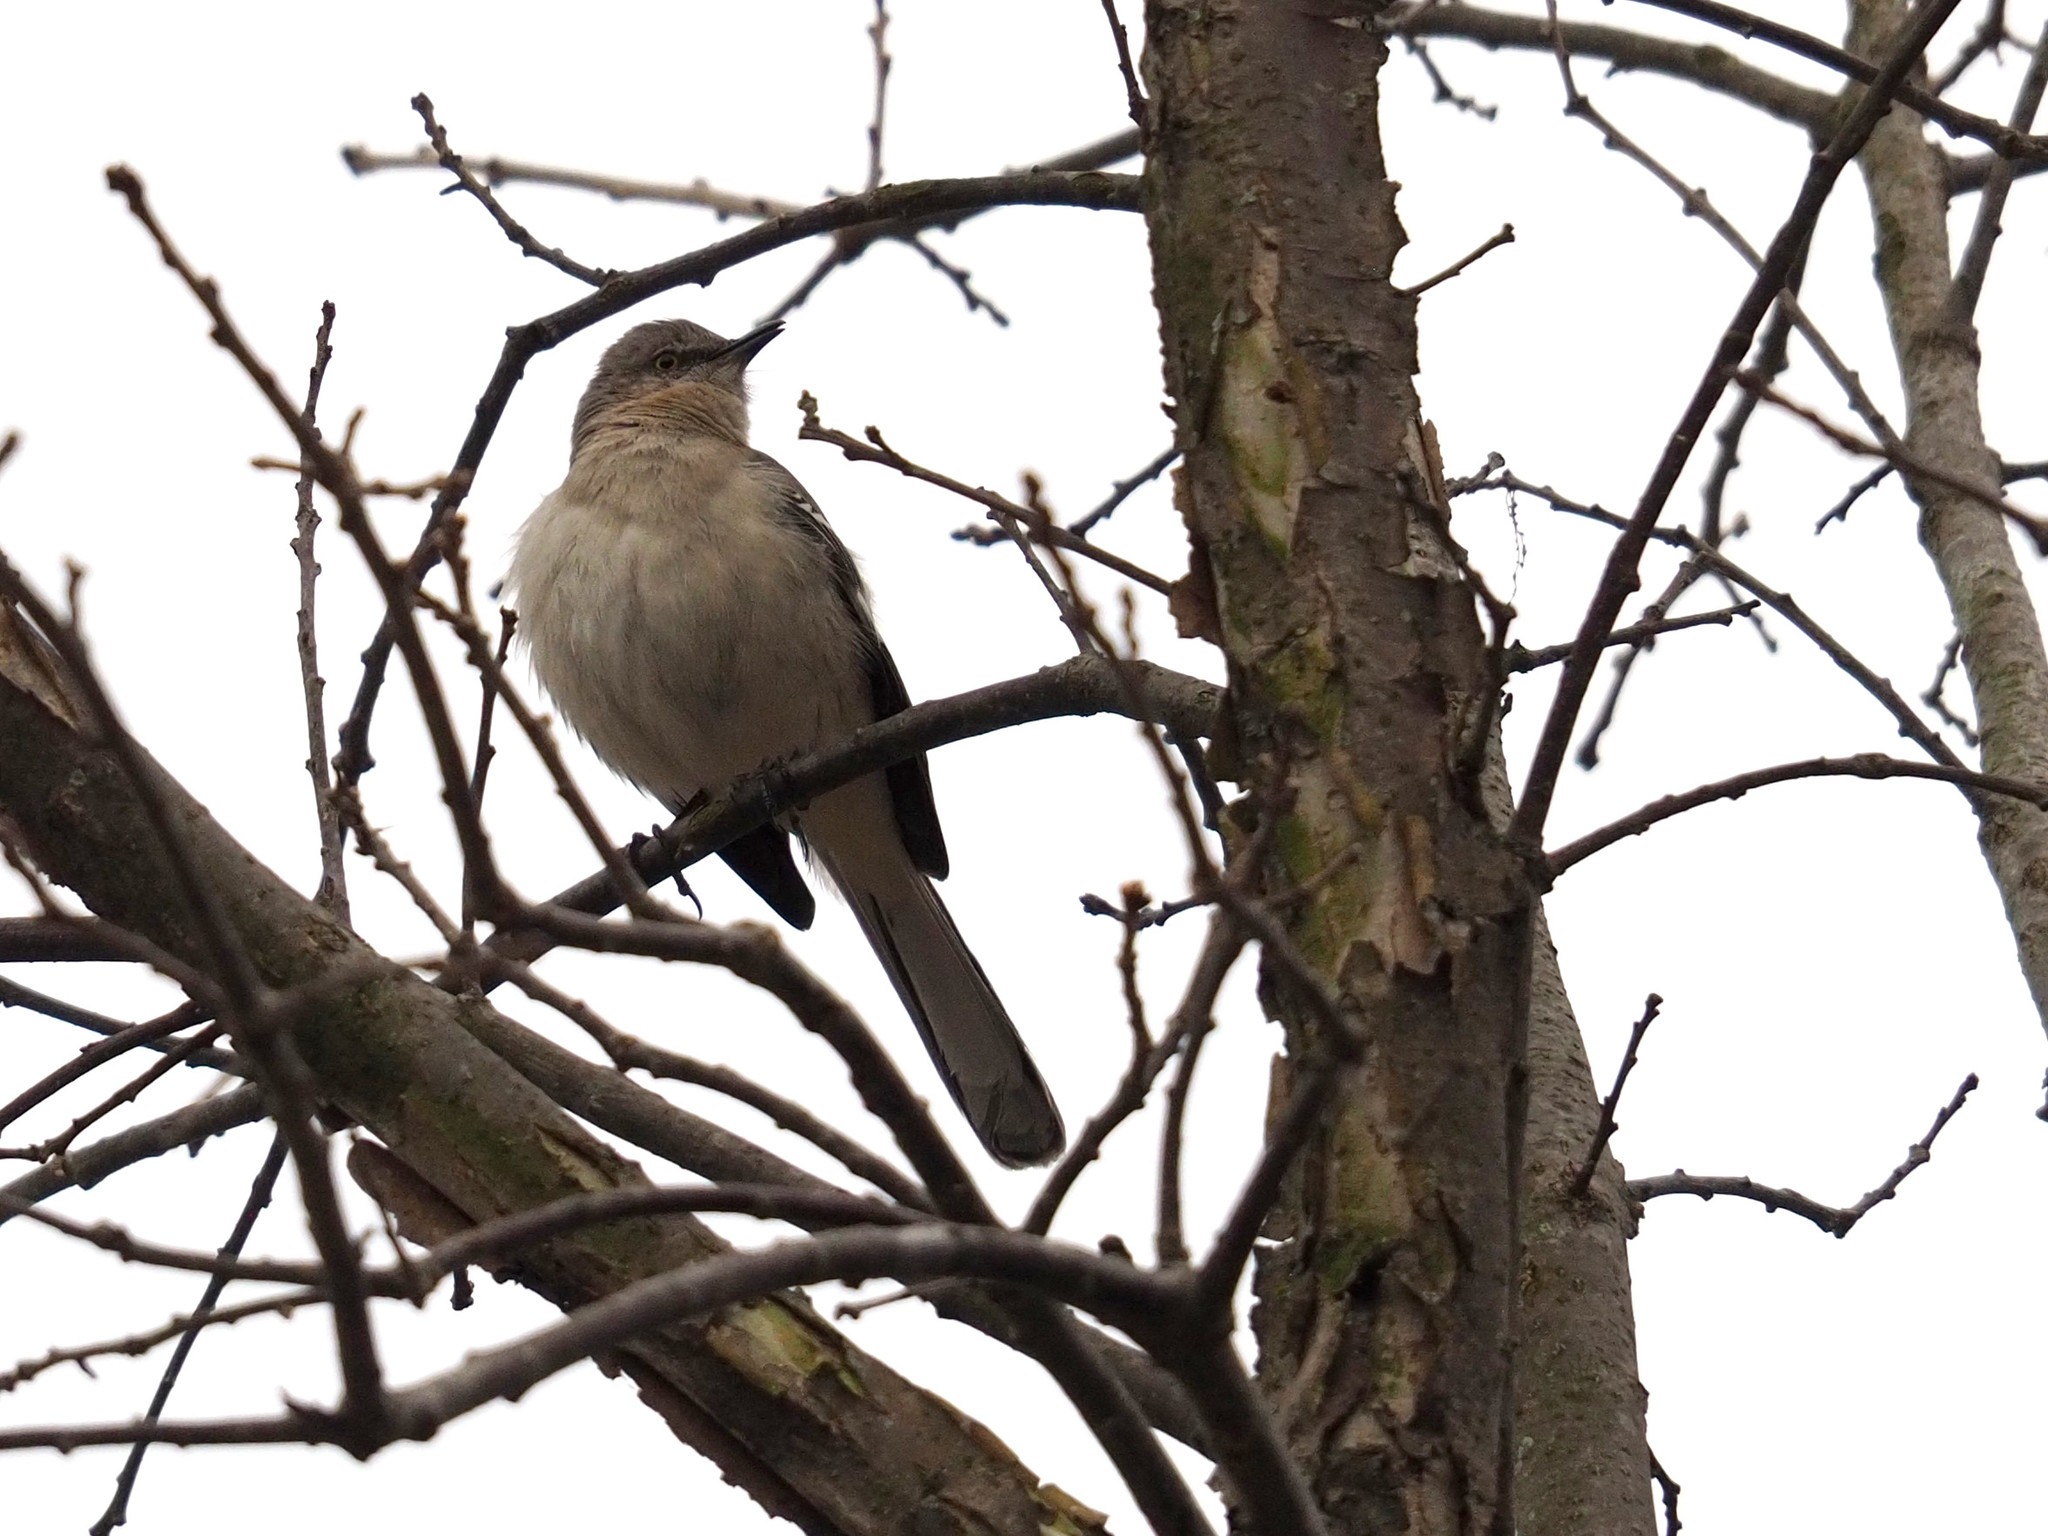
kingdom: Animalia
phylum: Chordata
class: Aves
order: Passeriformes
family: Mimidae
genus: Mimus
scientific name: Mimus polyglottos
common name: Northern mockingbird
